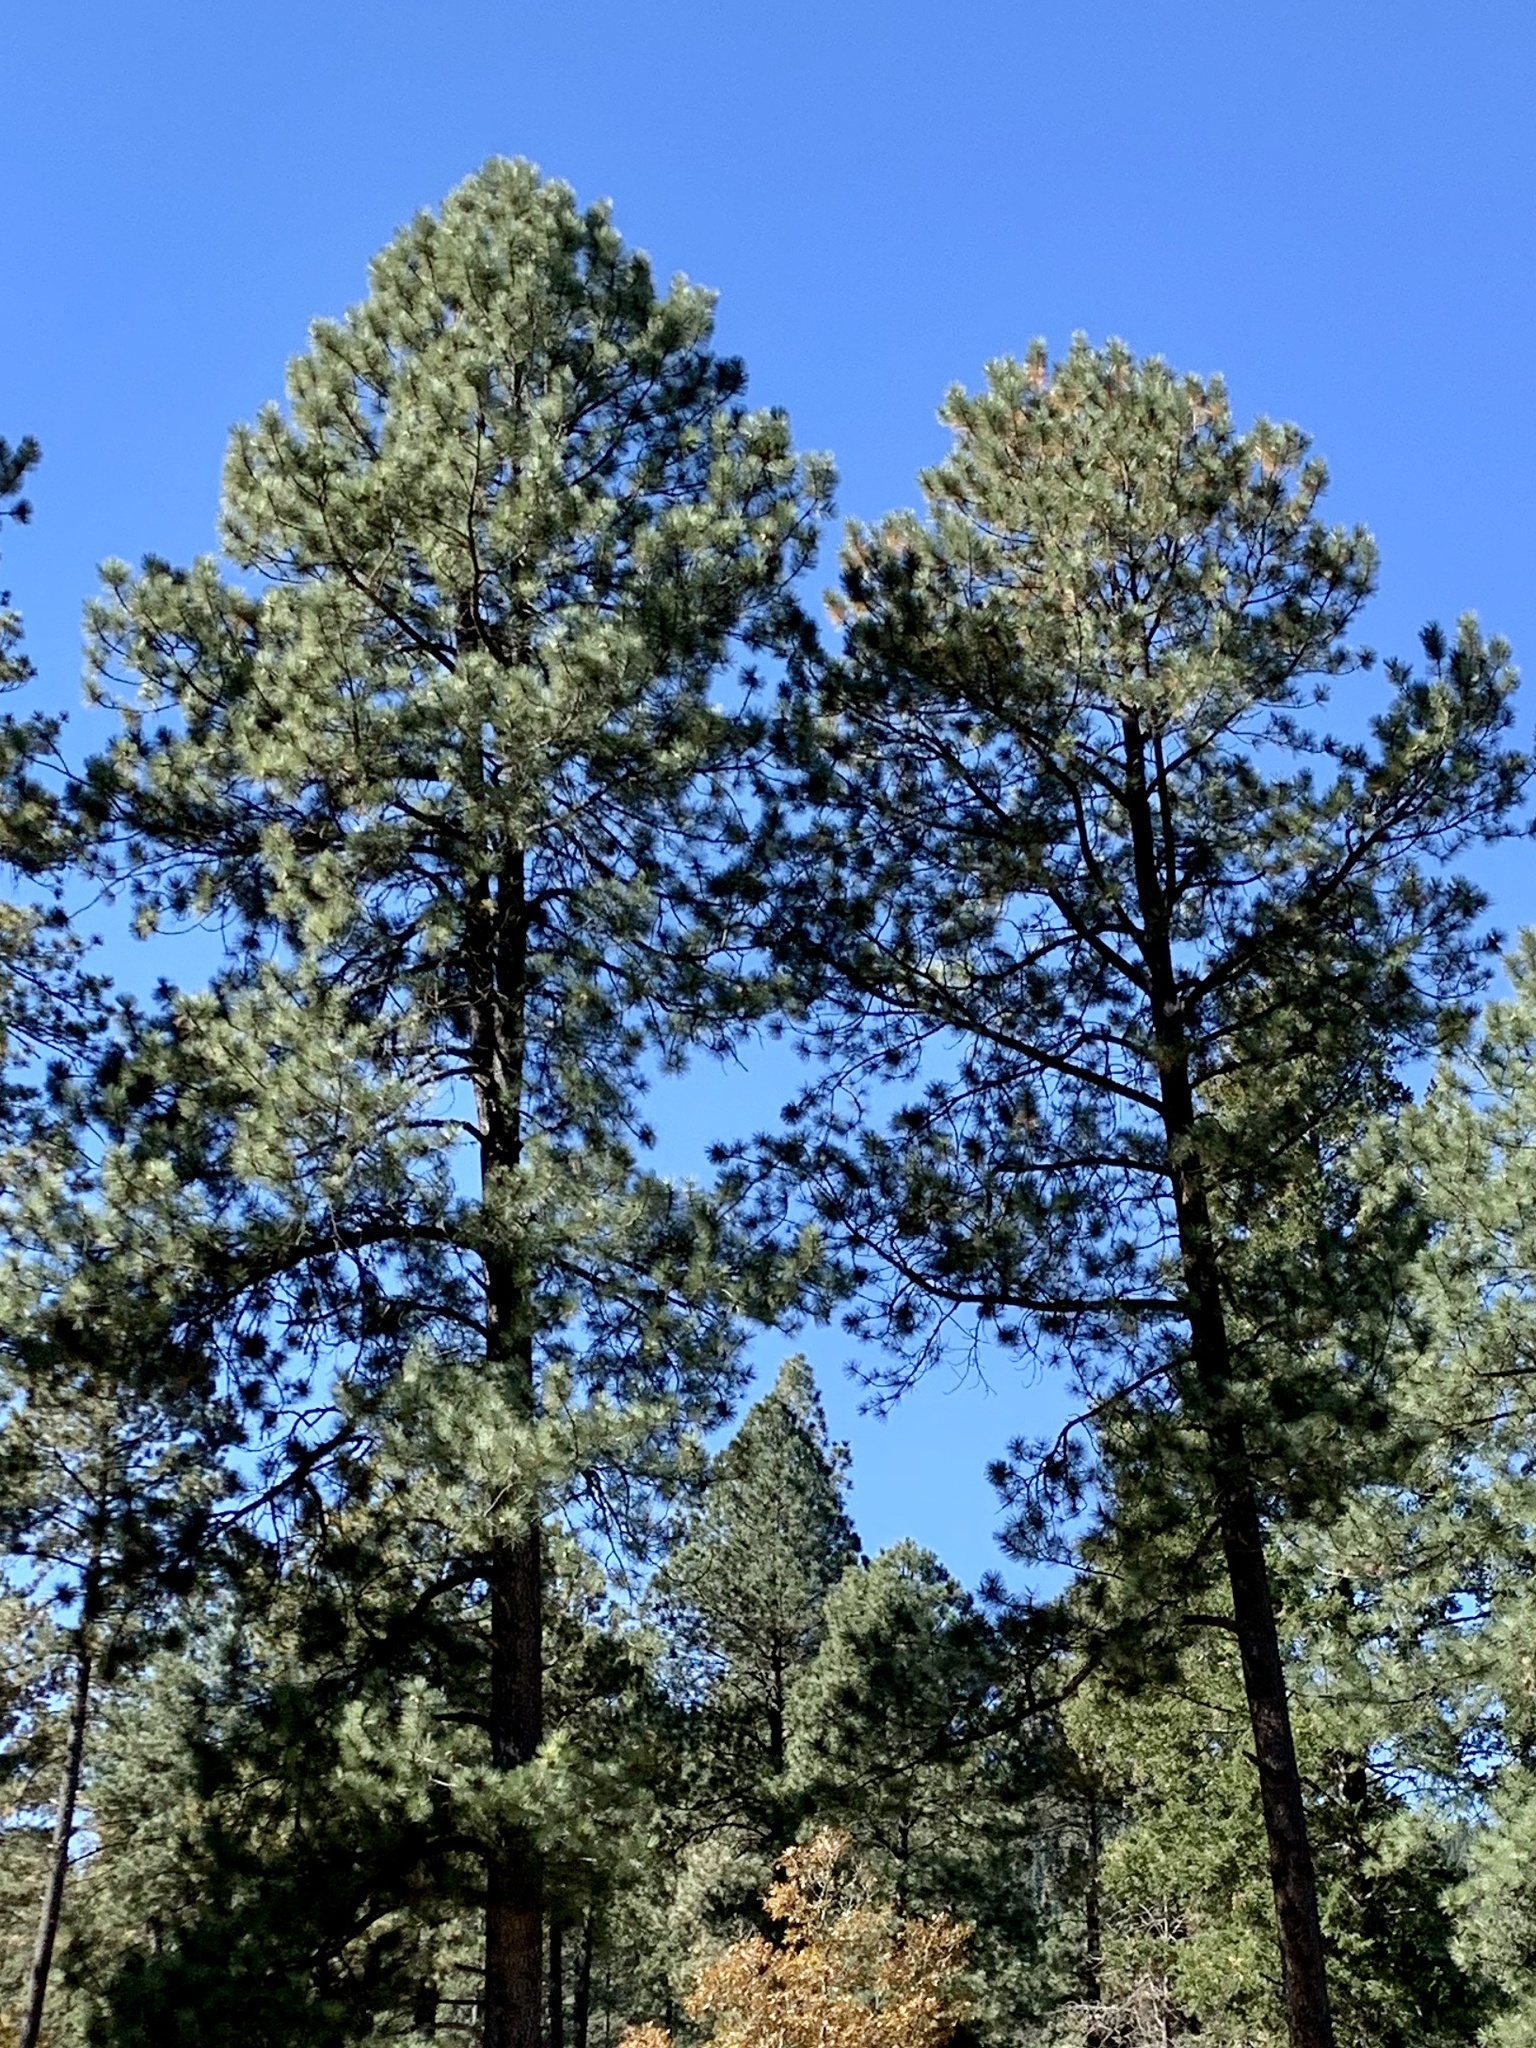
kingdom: Plantae
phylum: Tracheophyta
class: Pinopsida
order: Pinales
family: Pinaceae
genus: Pinus
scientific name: Pinus ponderosa
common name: Western yellow-pine
